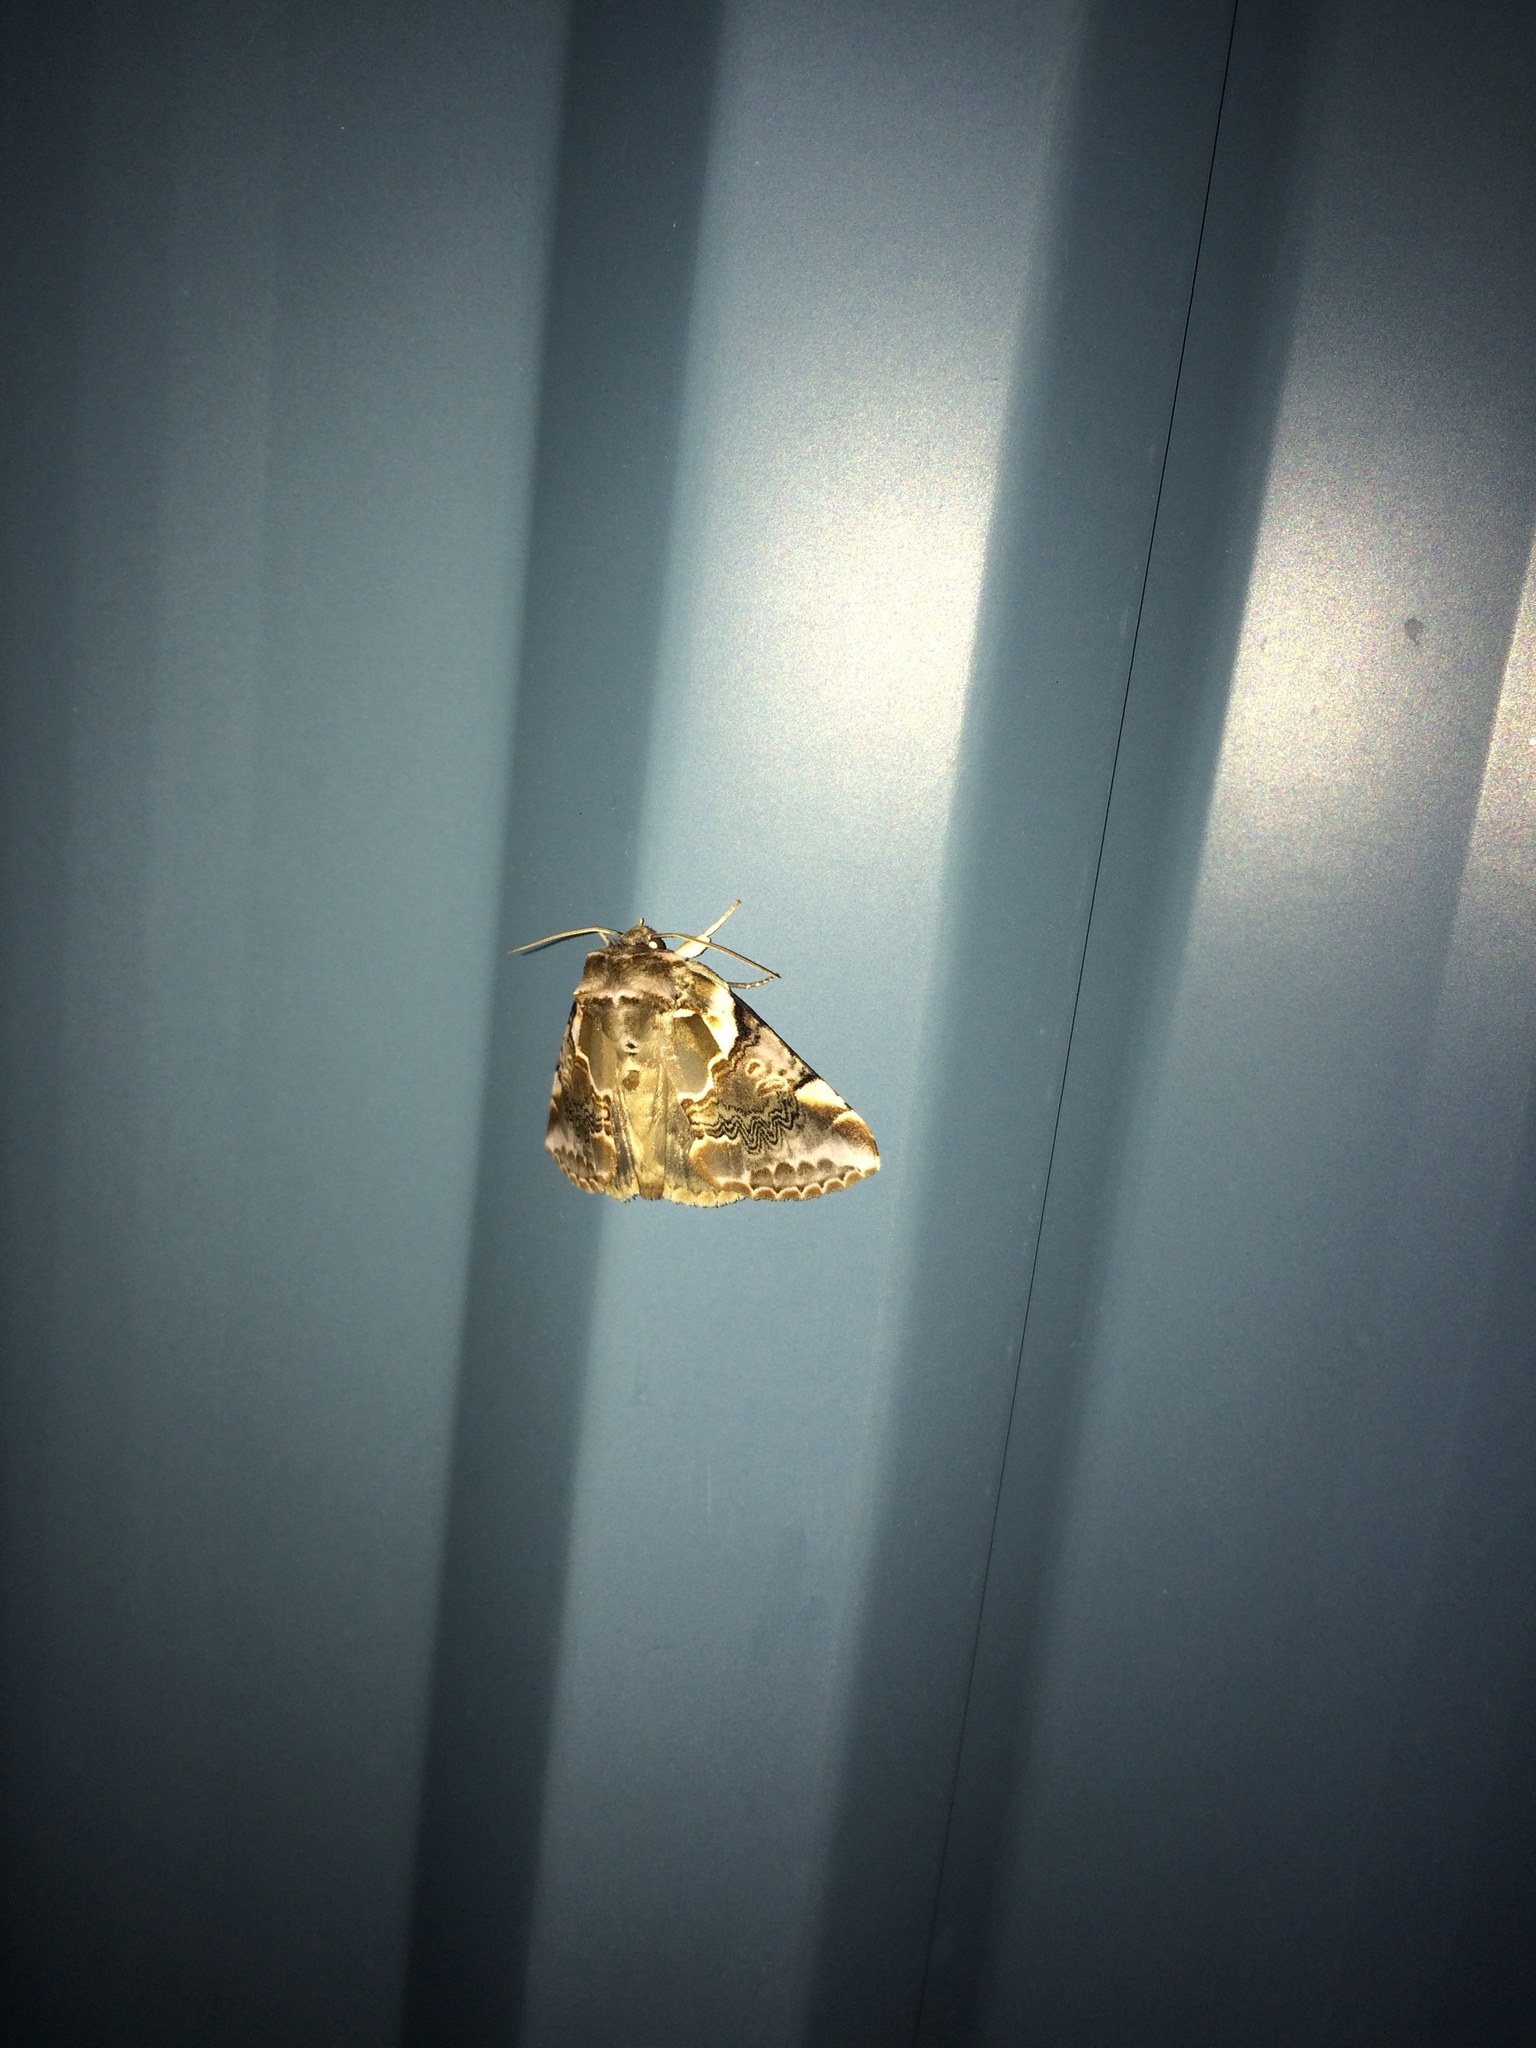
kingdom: Animalia
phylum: Arthropoda
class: Insecta
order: Lepidoptera
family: Drepanidae
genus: Habrosyne
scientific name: Habrosyne gloriosa
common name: Glorious habrosyne moth
